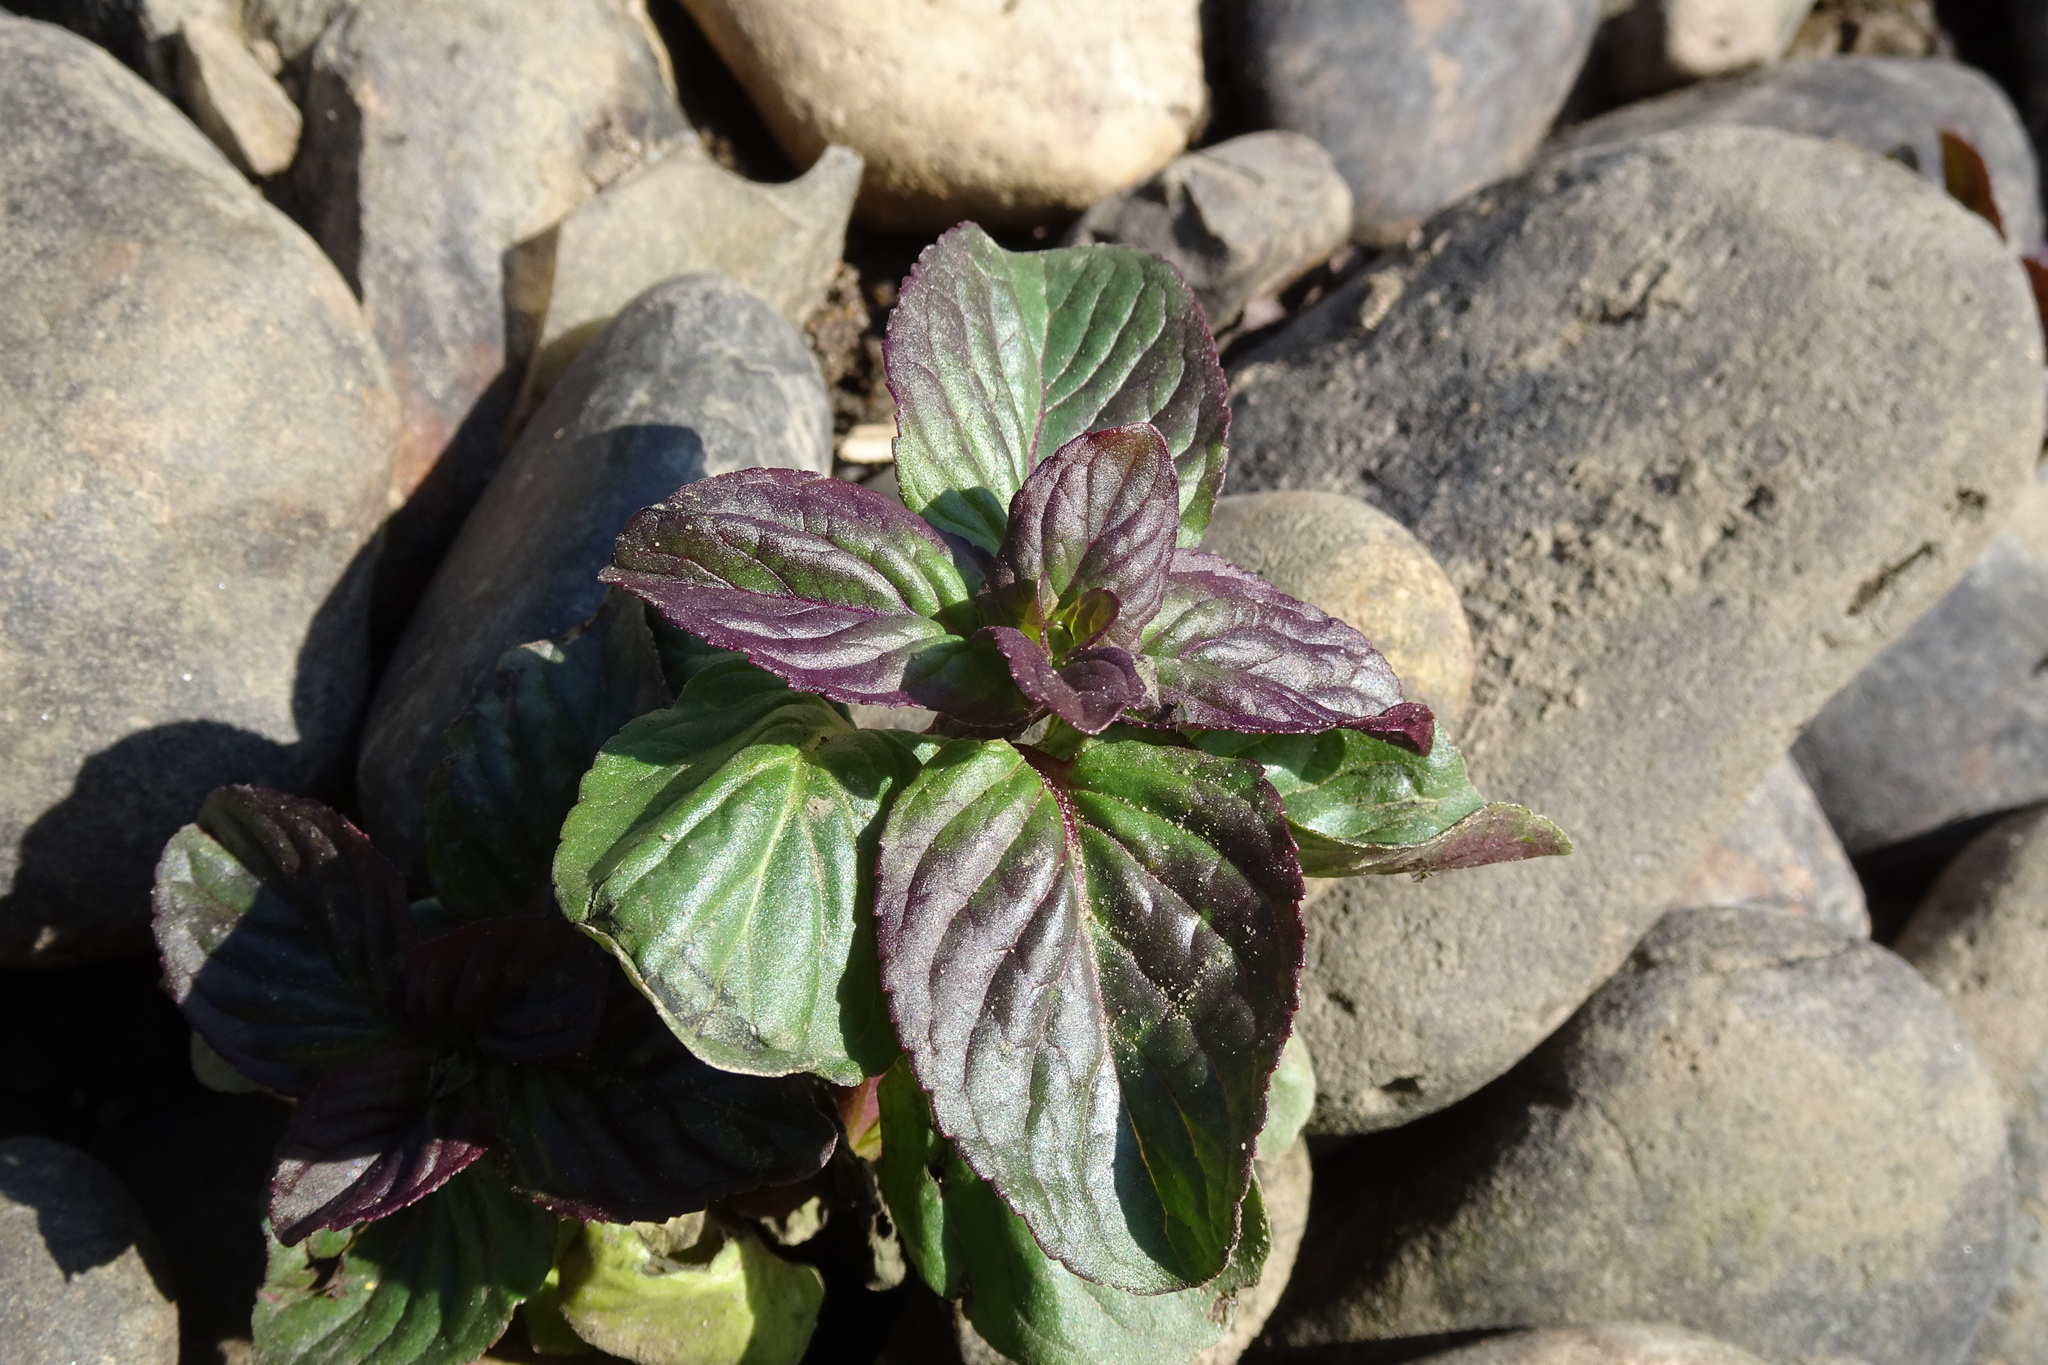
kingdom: Plantae
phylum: Tracheophyta
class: Magnoliopsida
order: Lamiales
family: Lamiaceae
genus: Mentha
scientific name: Mentha aquatica
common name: Water mint
